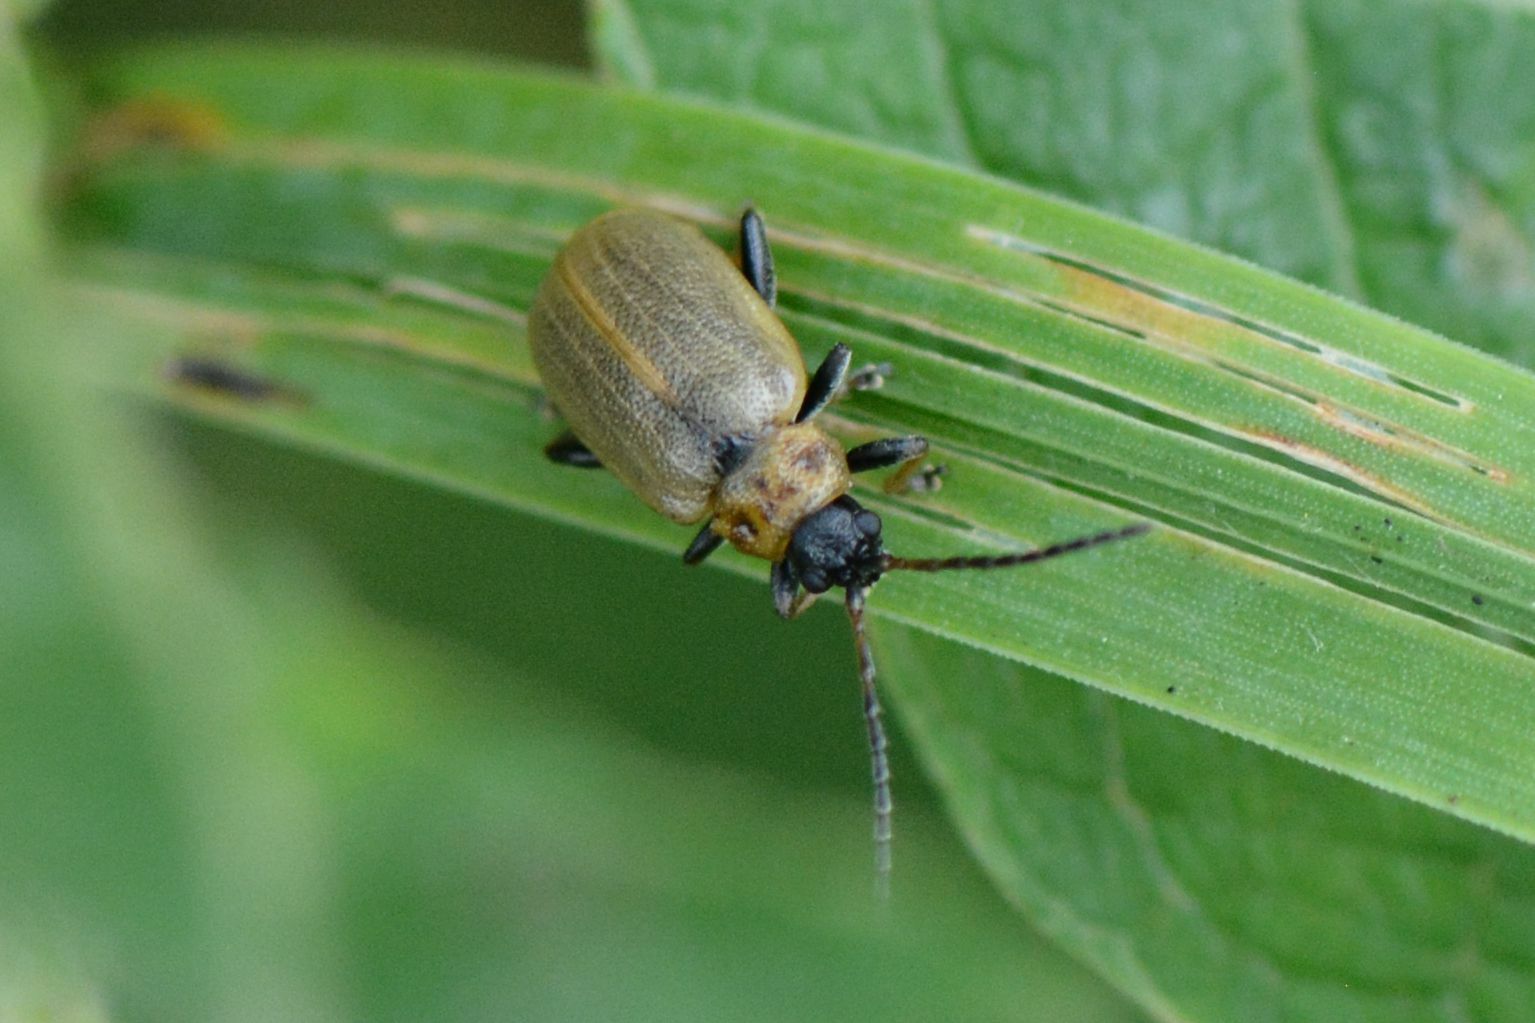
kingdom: Animalia
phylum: Arthropoda
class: Insecta
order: Coleoptera
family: Chrysomelidae
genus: Lochmaea
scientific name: Lochmaea caprea
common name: Willow leaf beetle
